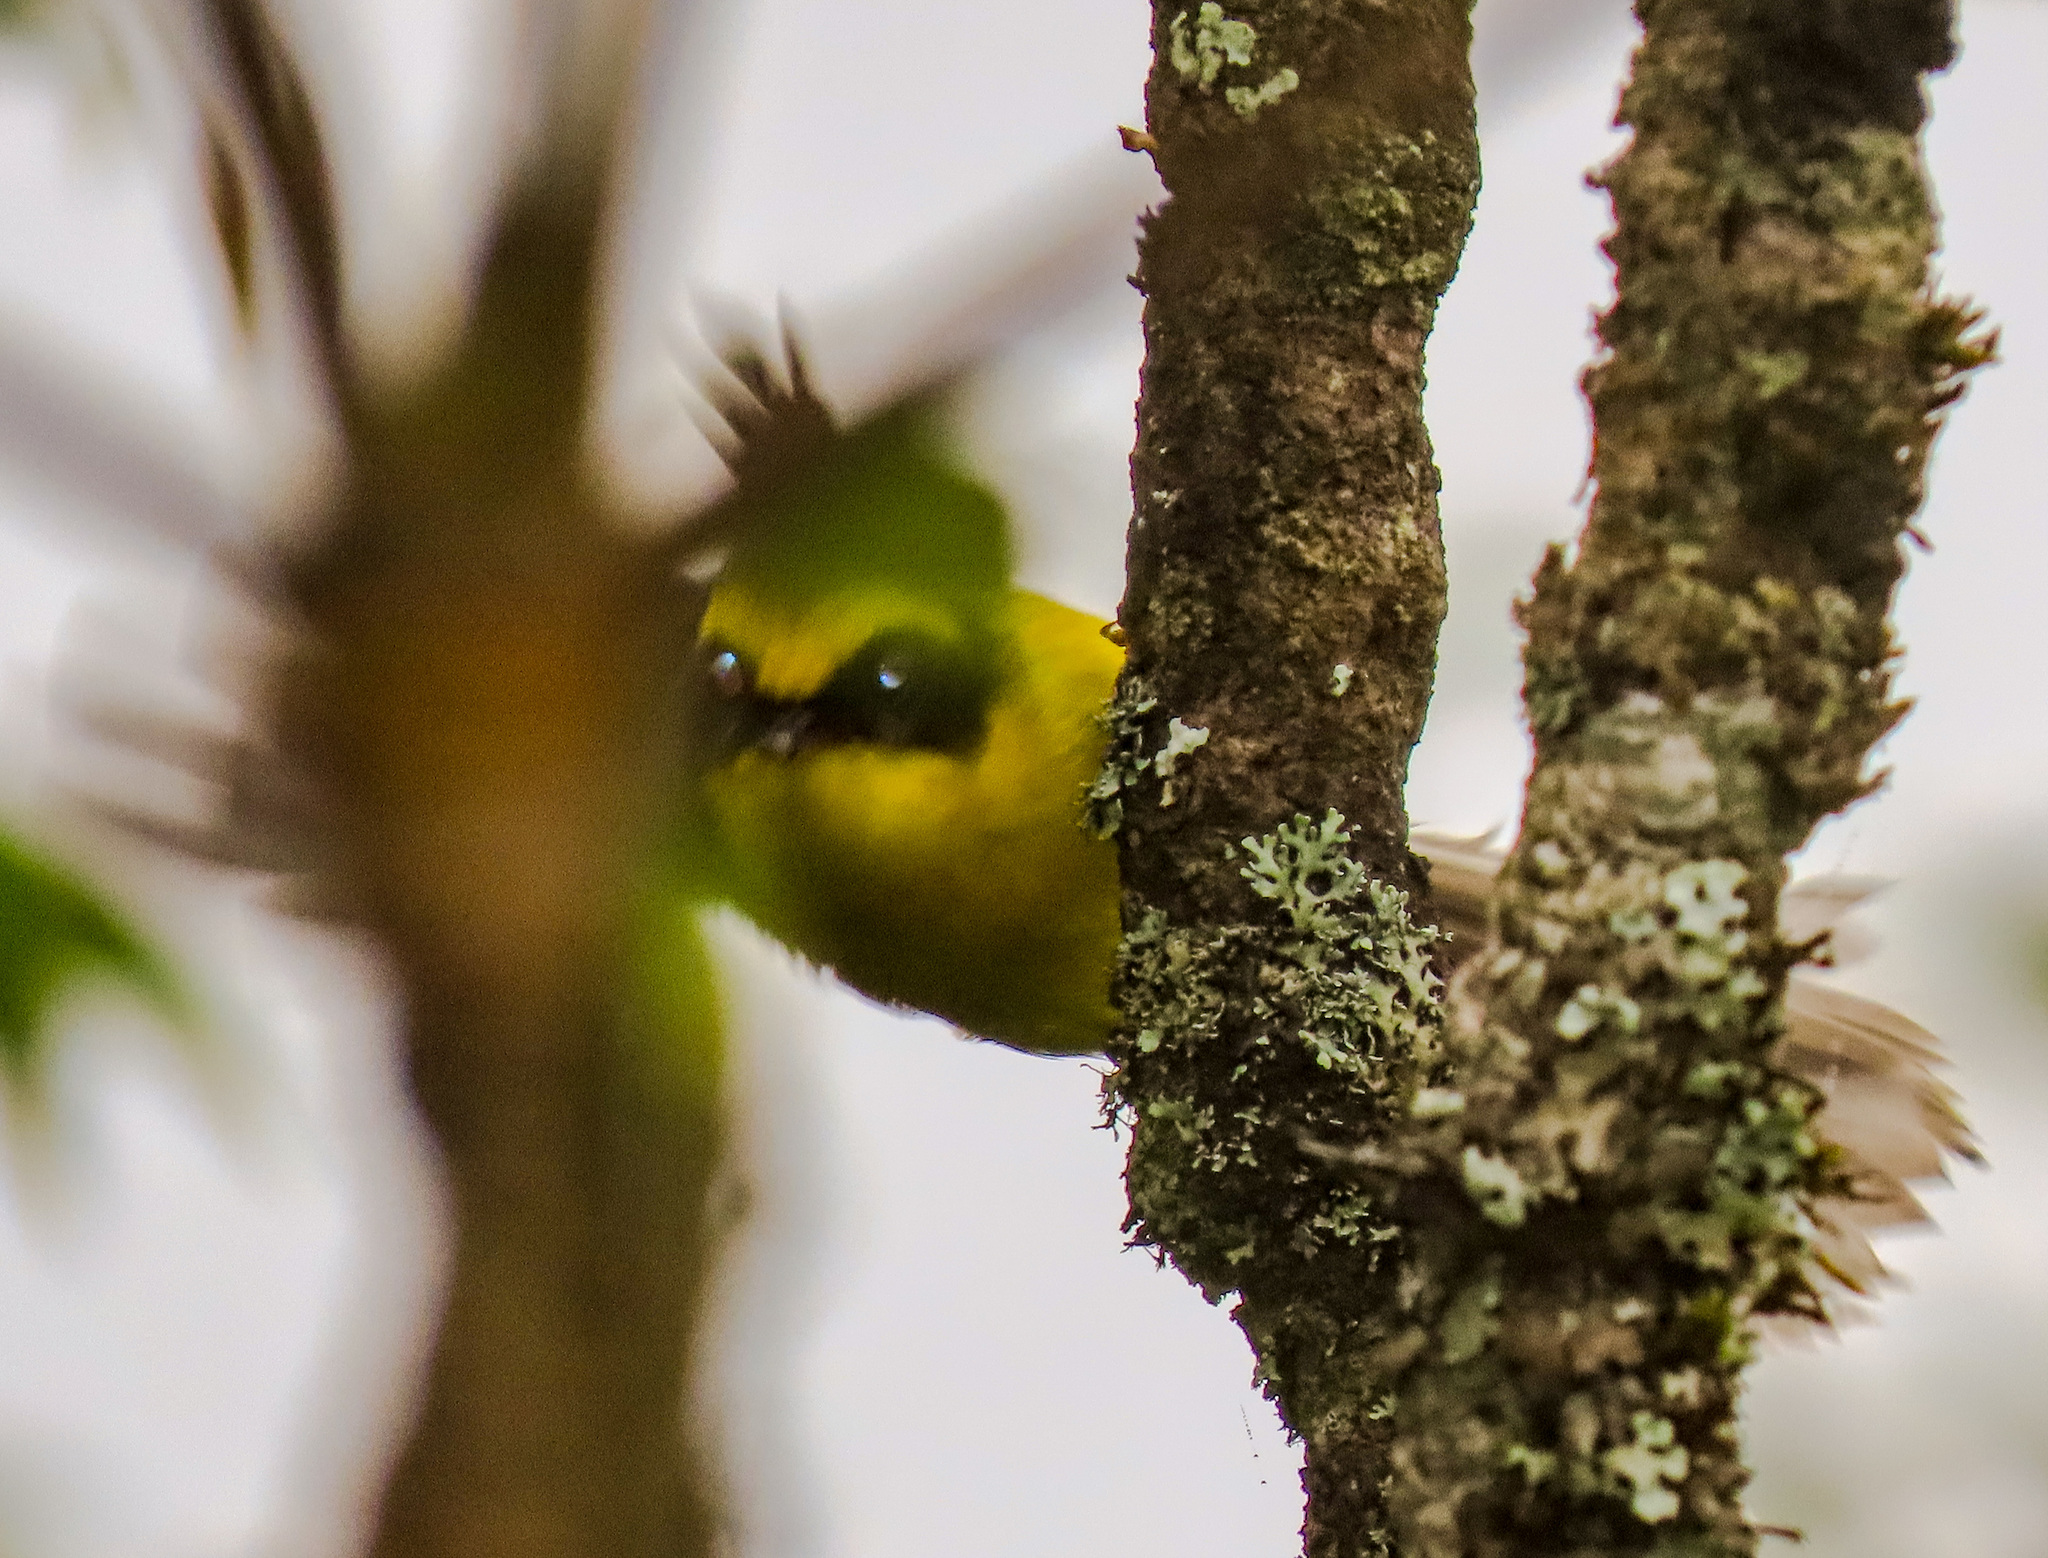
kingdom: Animalia
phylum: Chordata
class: Aves
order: Passeriformes
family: Stenostiridae
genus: Chelidorhynx
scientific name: Chelidorhynx hypoxantha
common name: Yellow-bellied fantail
